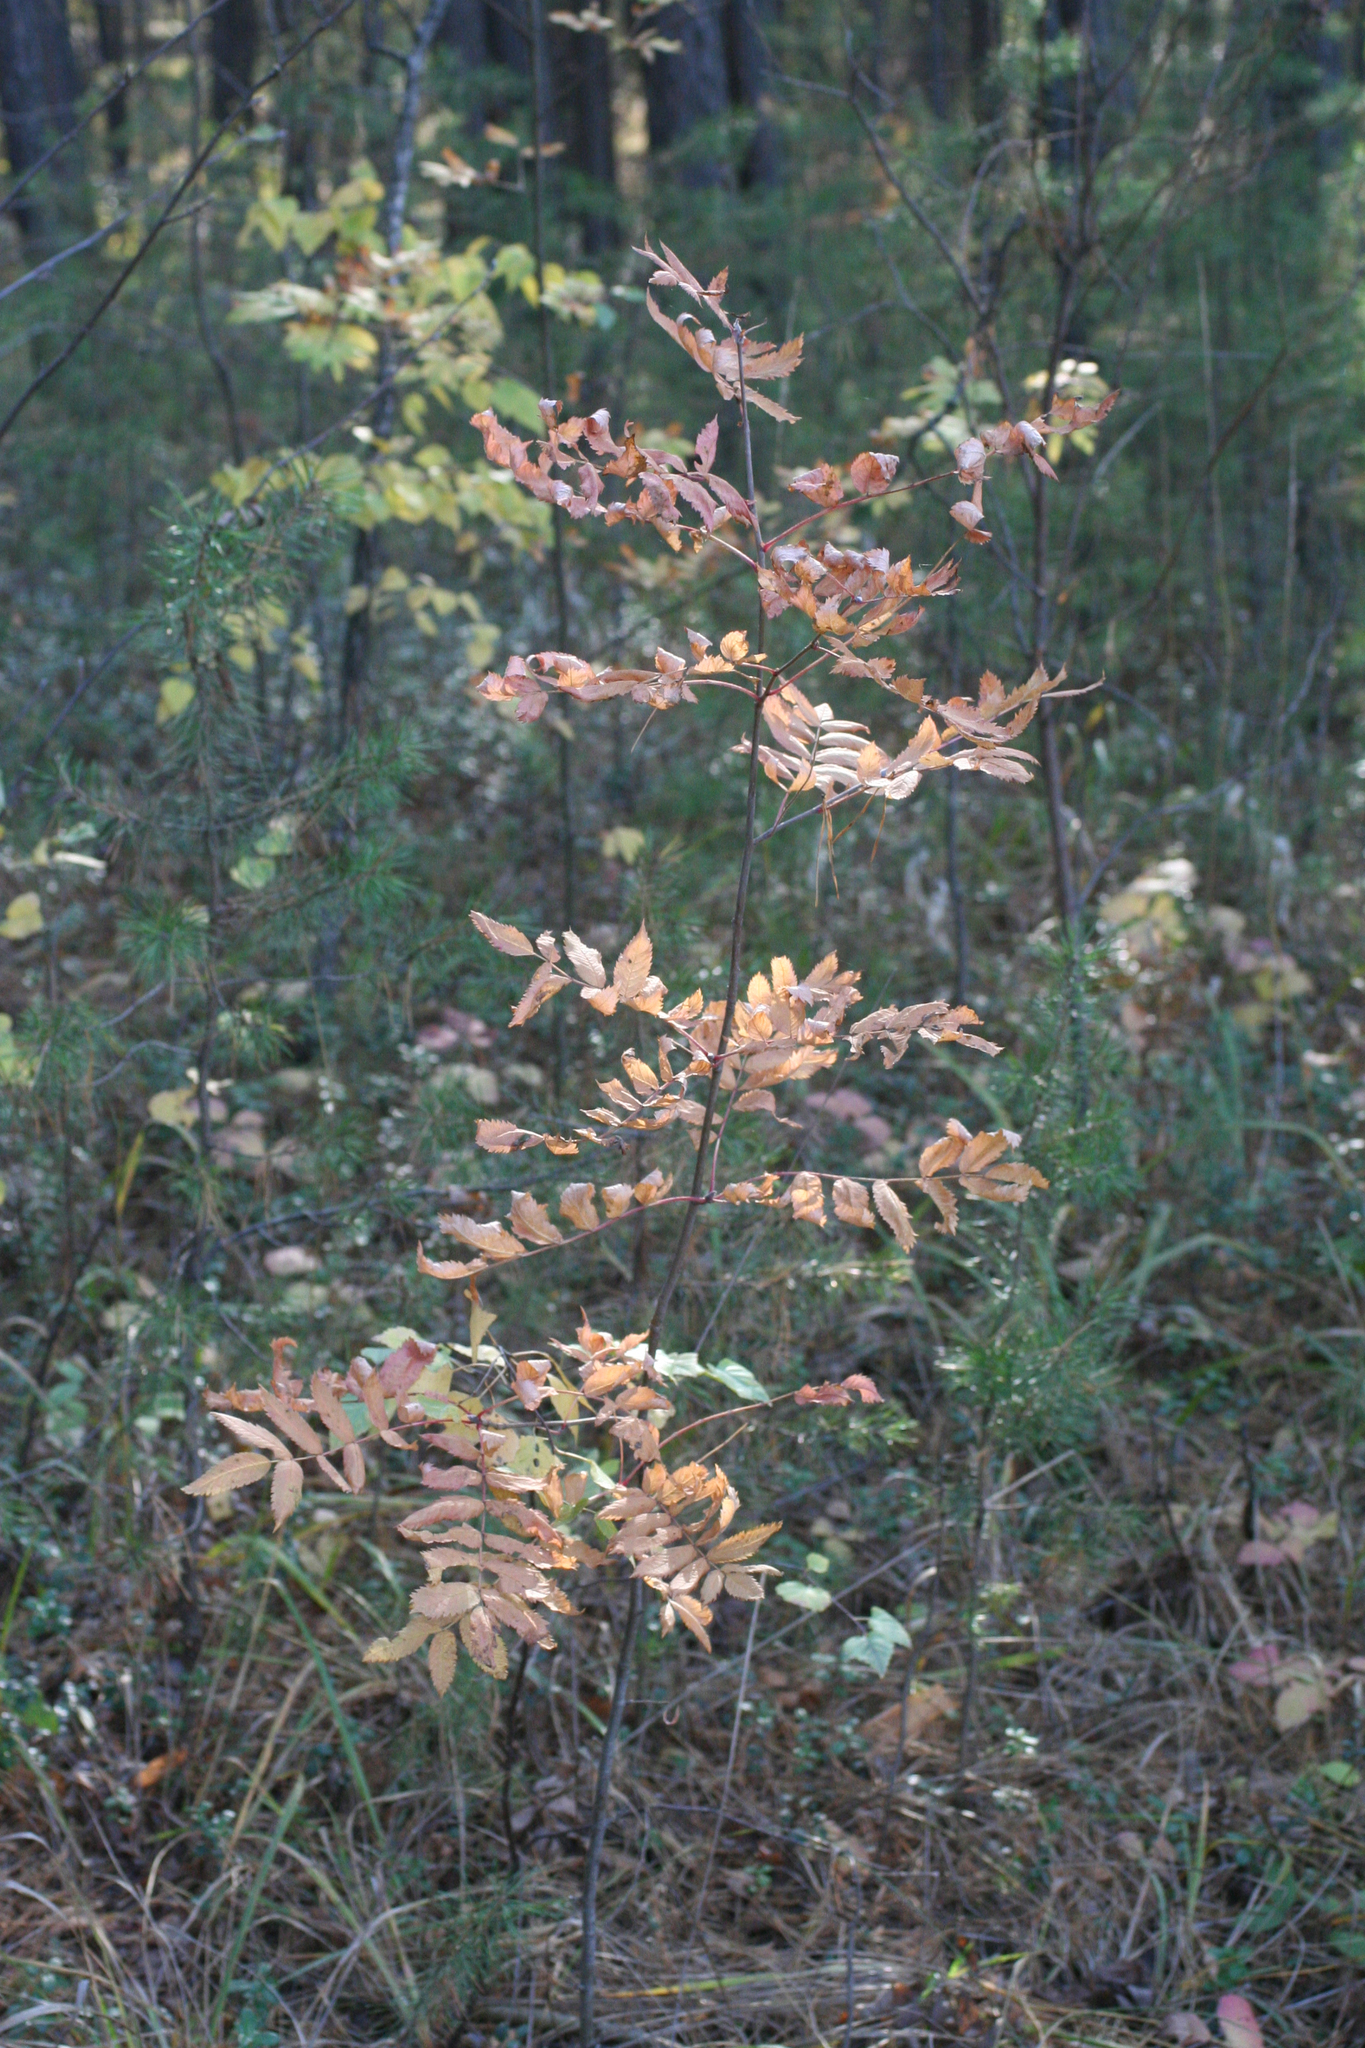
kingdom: Plantae
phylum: Tracheophyta
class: Magnoliopsida
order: Rosales
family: Rosaceae
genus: Sorbus
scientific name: Sorbus aucuparia
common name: Rowan
